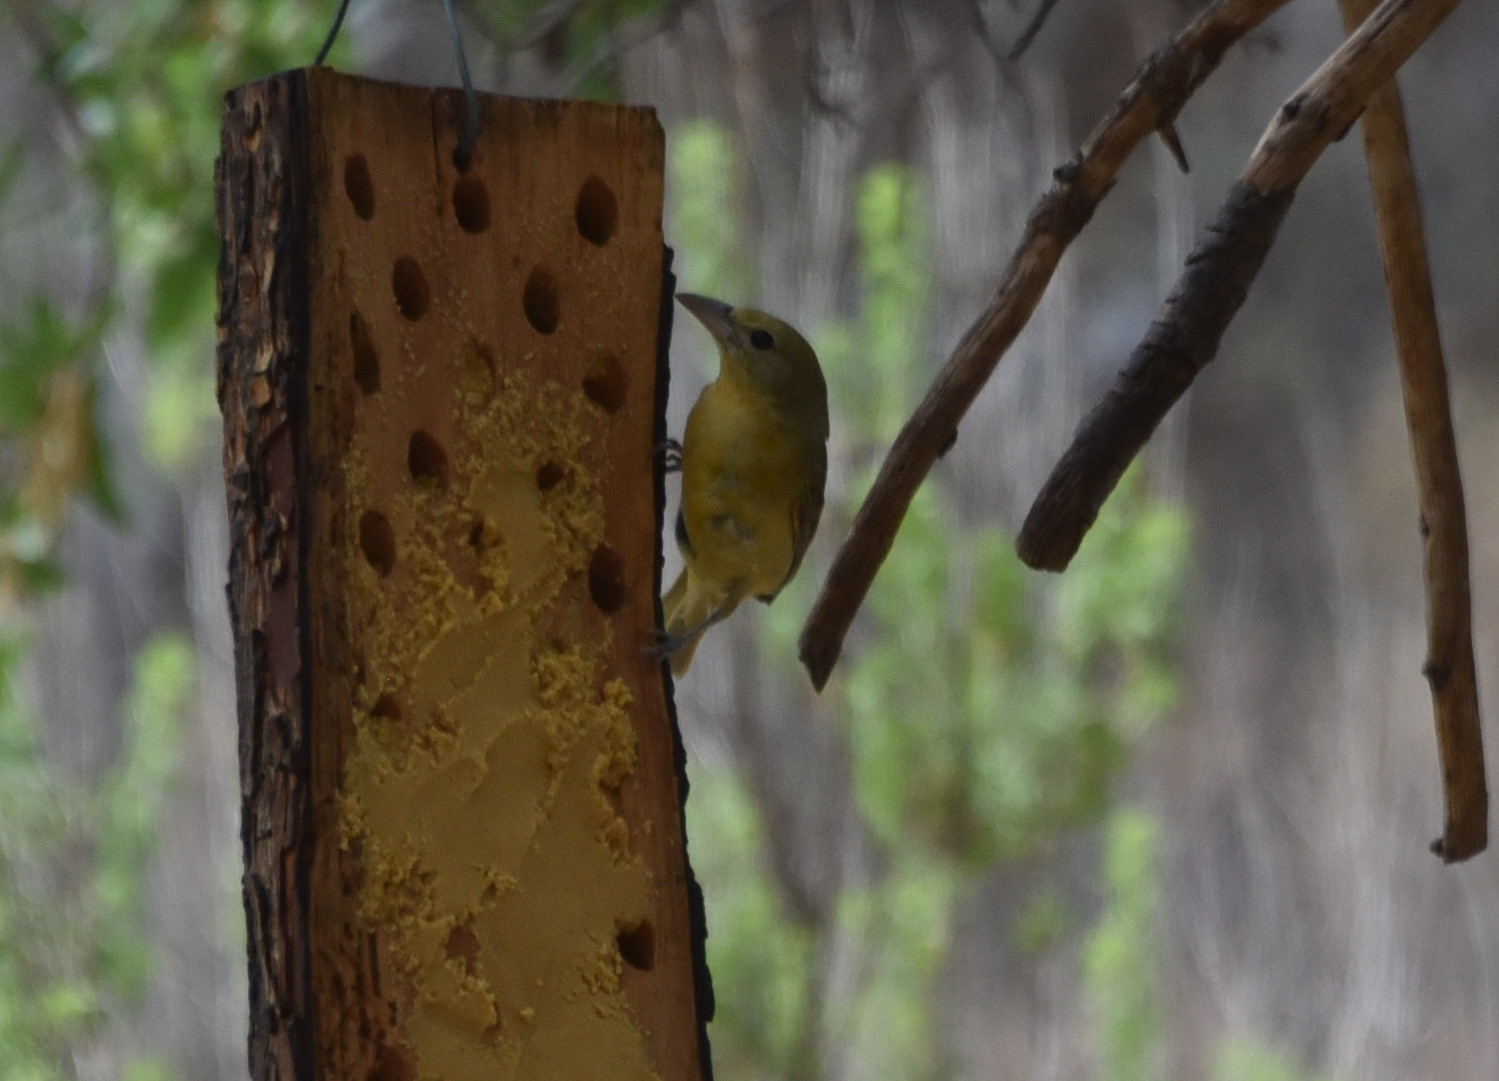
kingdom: Animalia
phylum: Chordata
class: Aves
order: Passeriformes
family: Cardinalidae
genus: Piranga
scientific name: Piranga rubra
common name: Summer tanager
